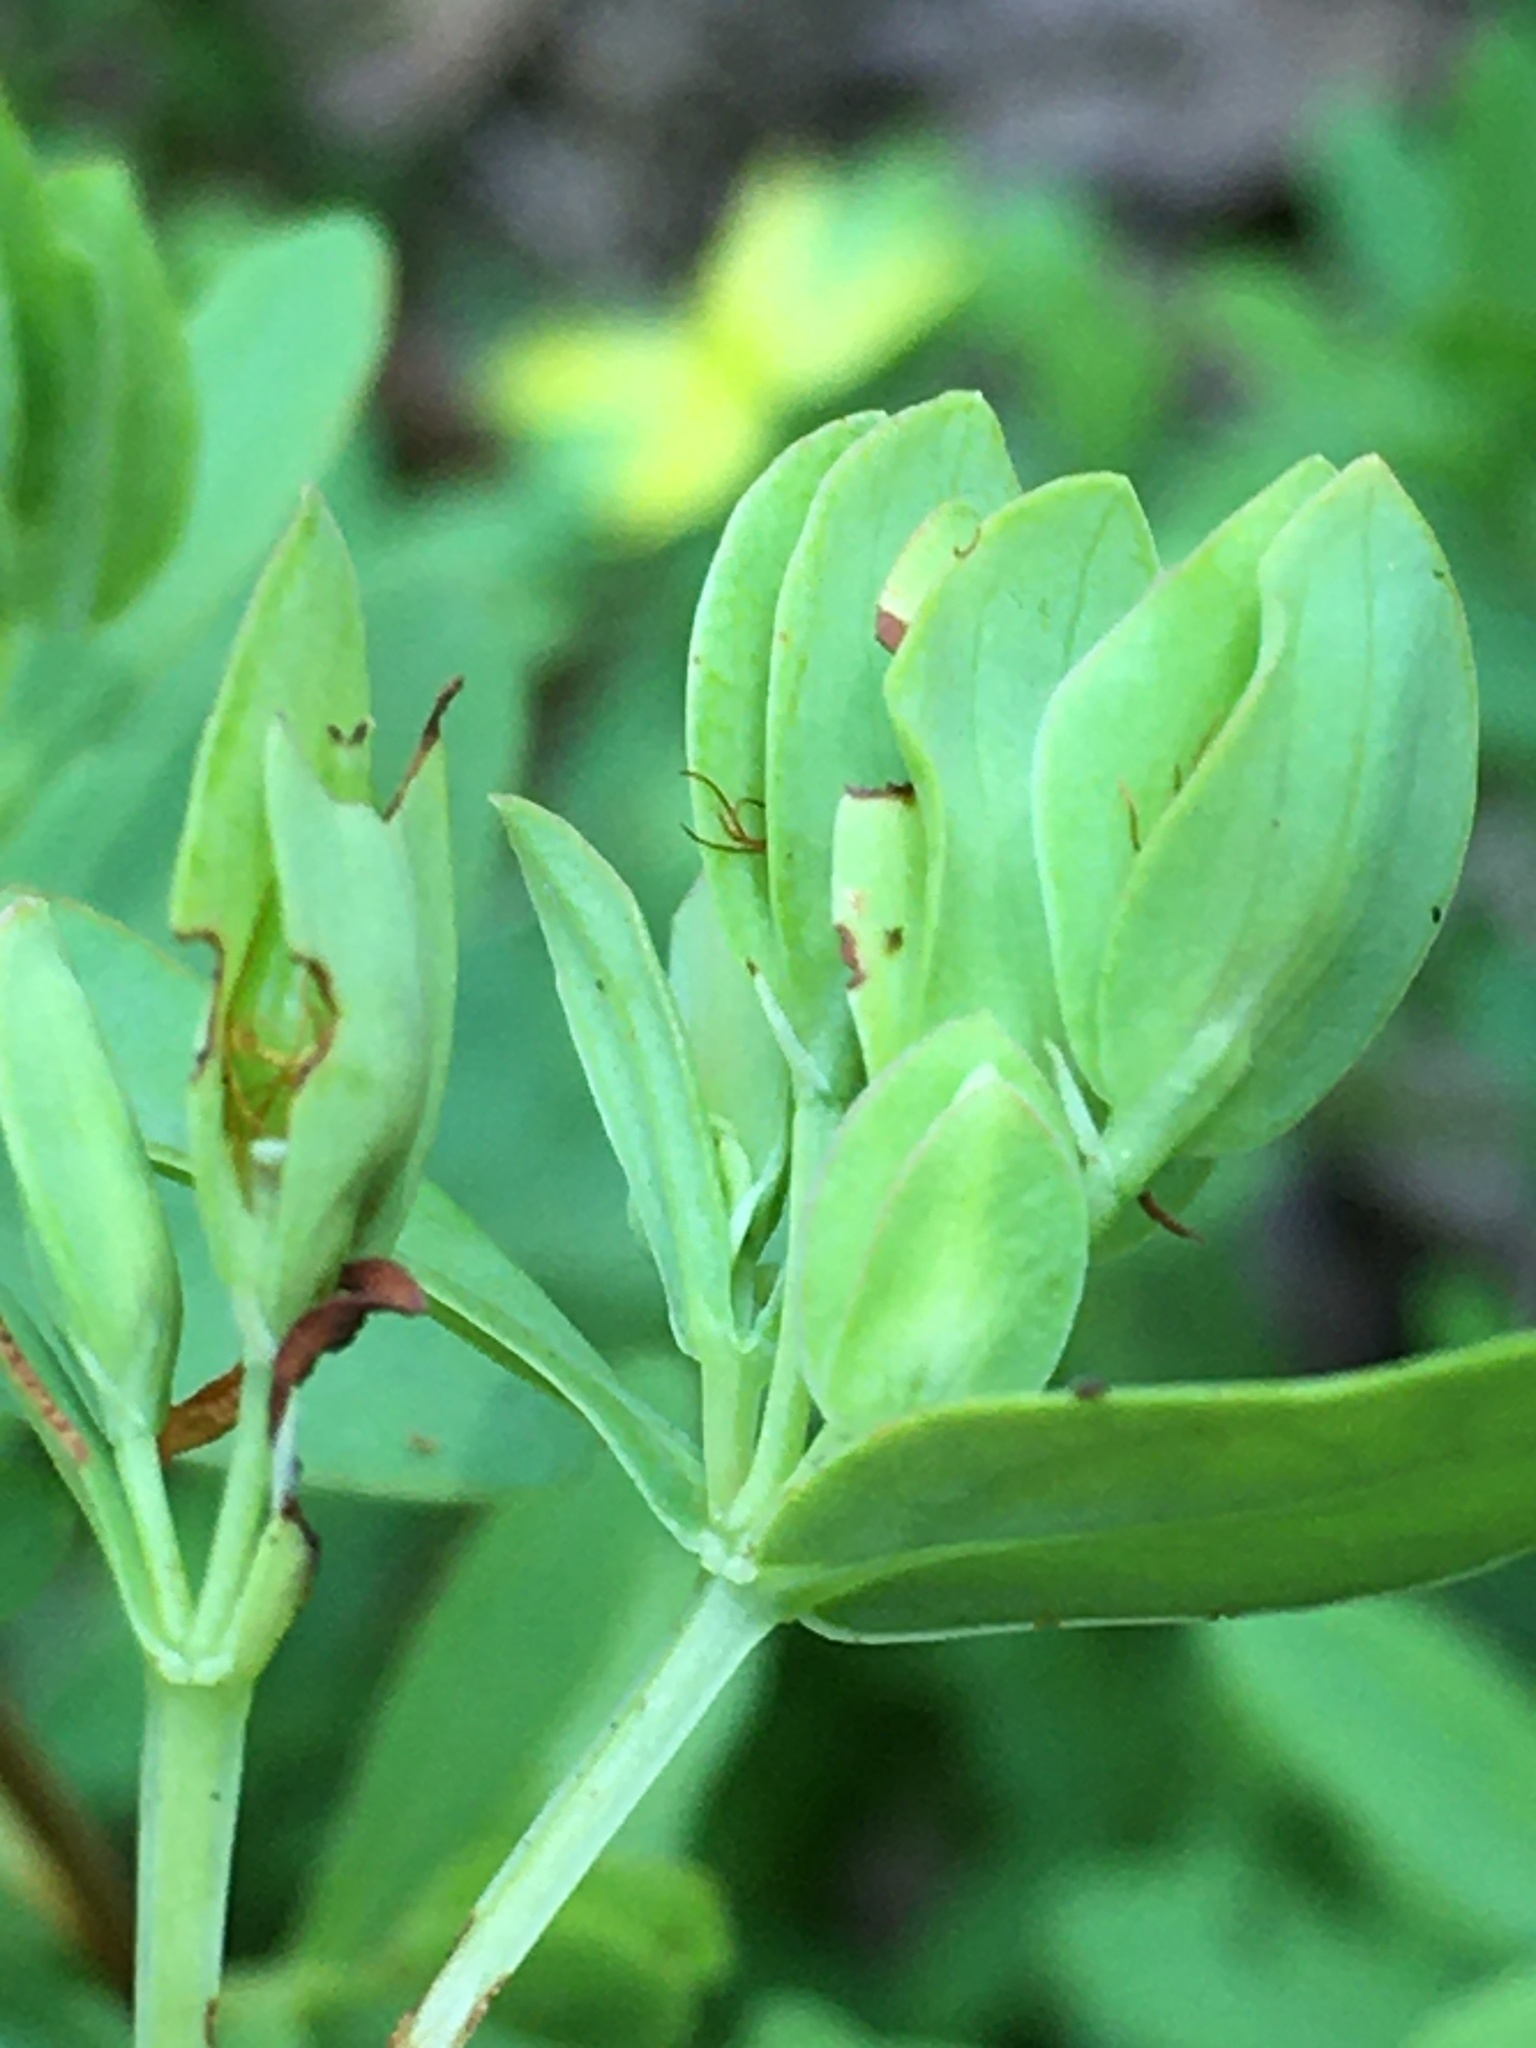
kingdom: Plantae
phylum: Tracheophyta
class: Magnoliopsida
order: Malpighiales
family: Hypericaceae
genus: Hypericum
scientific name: Hypericum hypericoides
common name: St. andrew's cross
